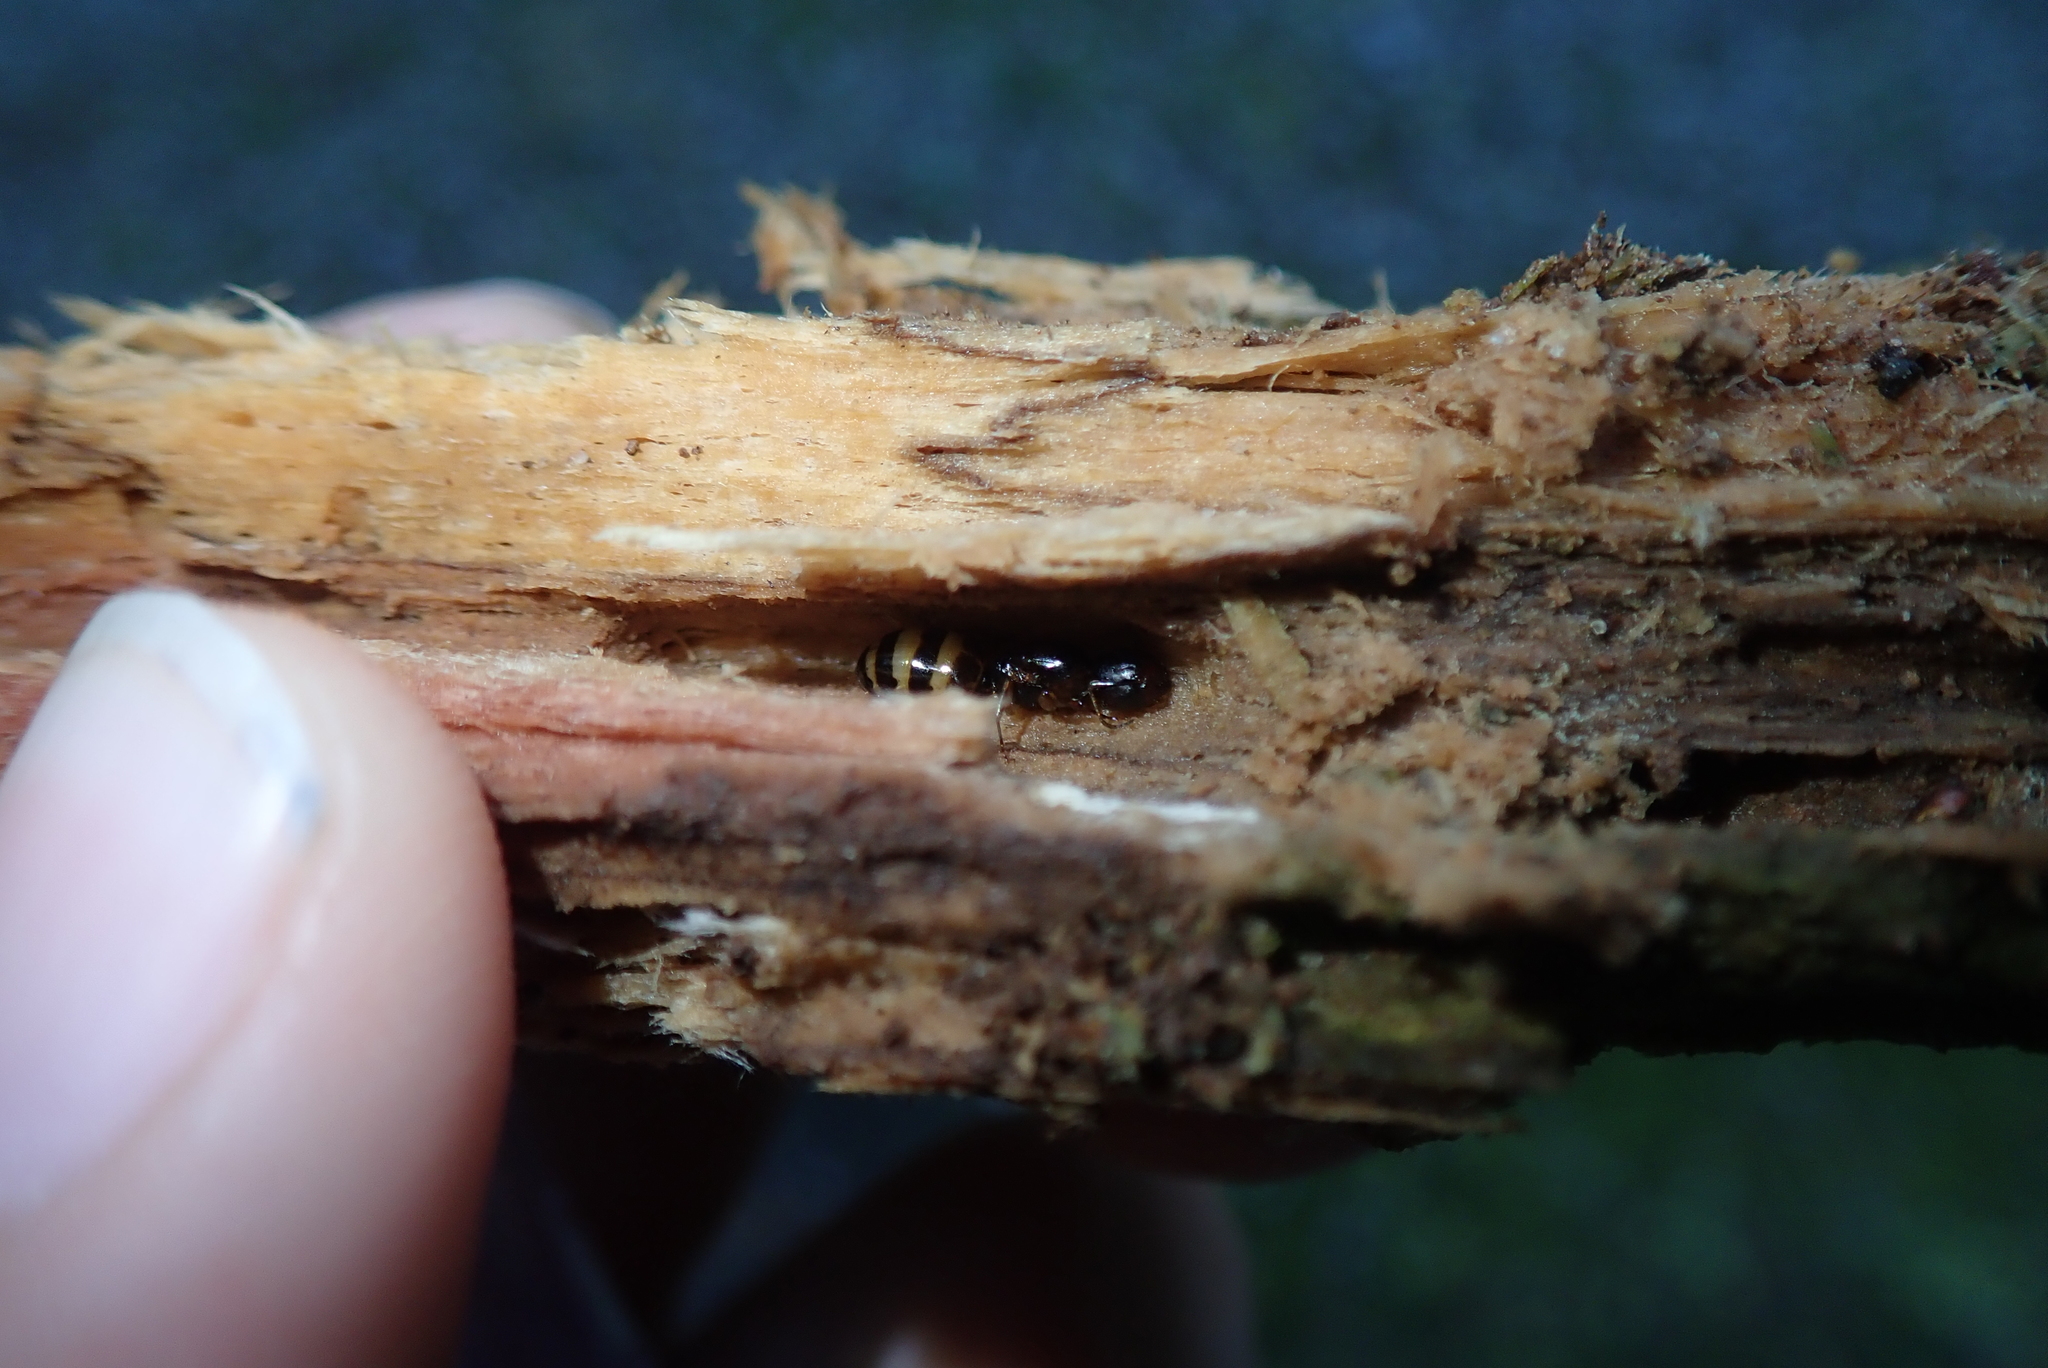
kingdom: Animalia
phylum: Arthropoda
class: Insecta
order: Hymenoptera
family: Formicidae
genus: Camponotus
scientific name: Camponotus subbarbatus
